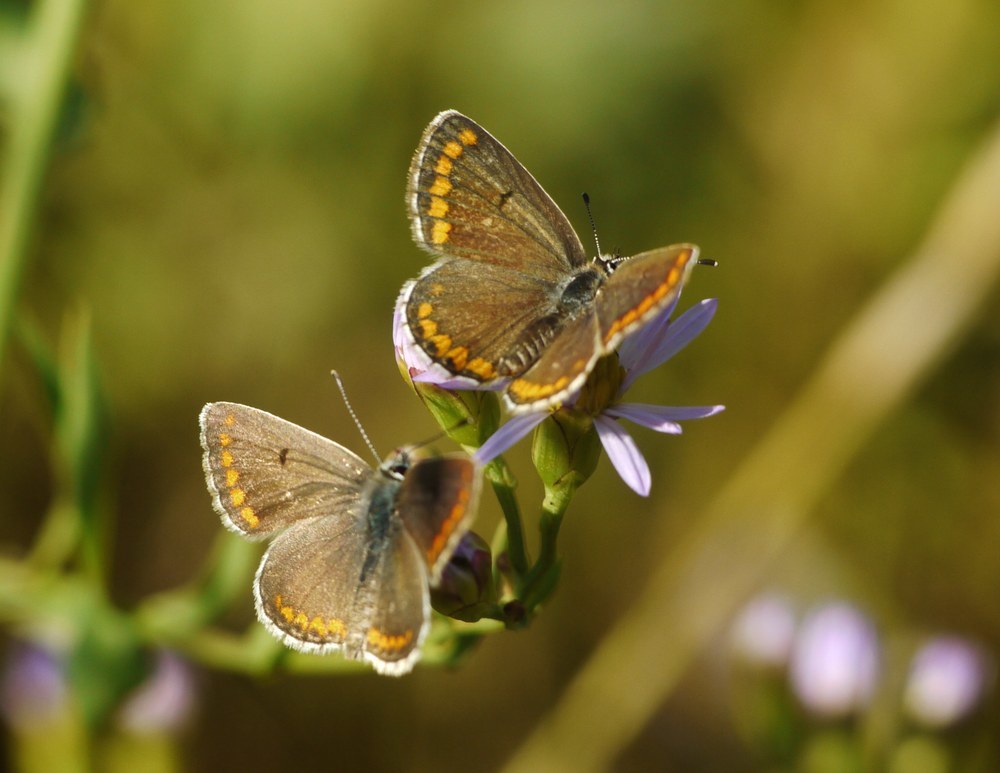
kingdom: Animalia
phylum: Arthropoda
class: Insecta
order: Lepidoptera
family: Lycaenidae
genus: Aricia
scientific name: Aricia agestis
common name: Brown argus
